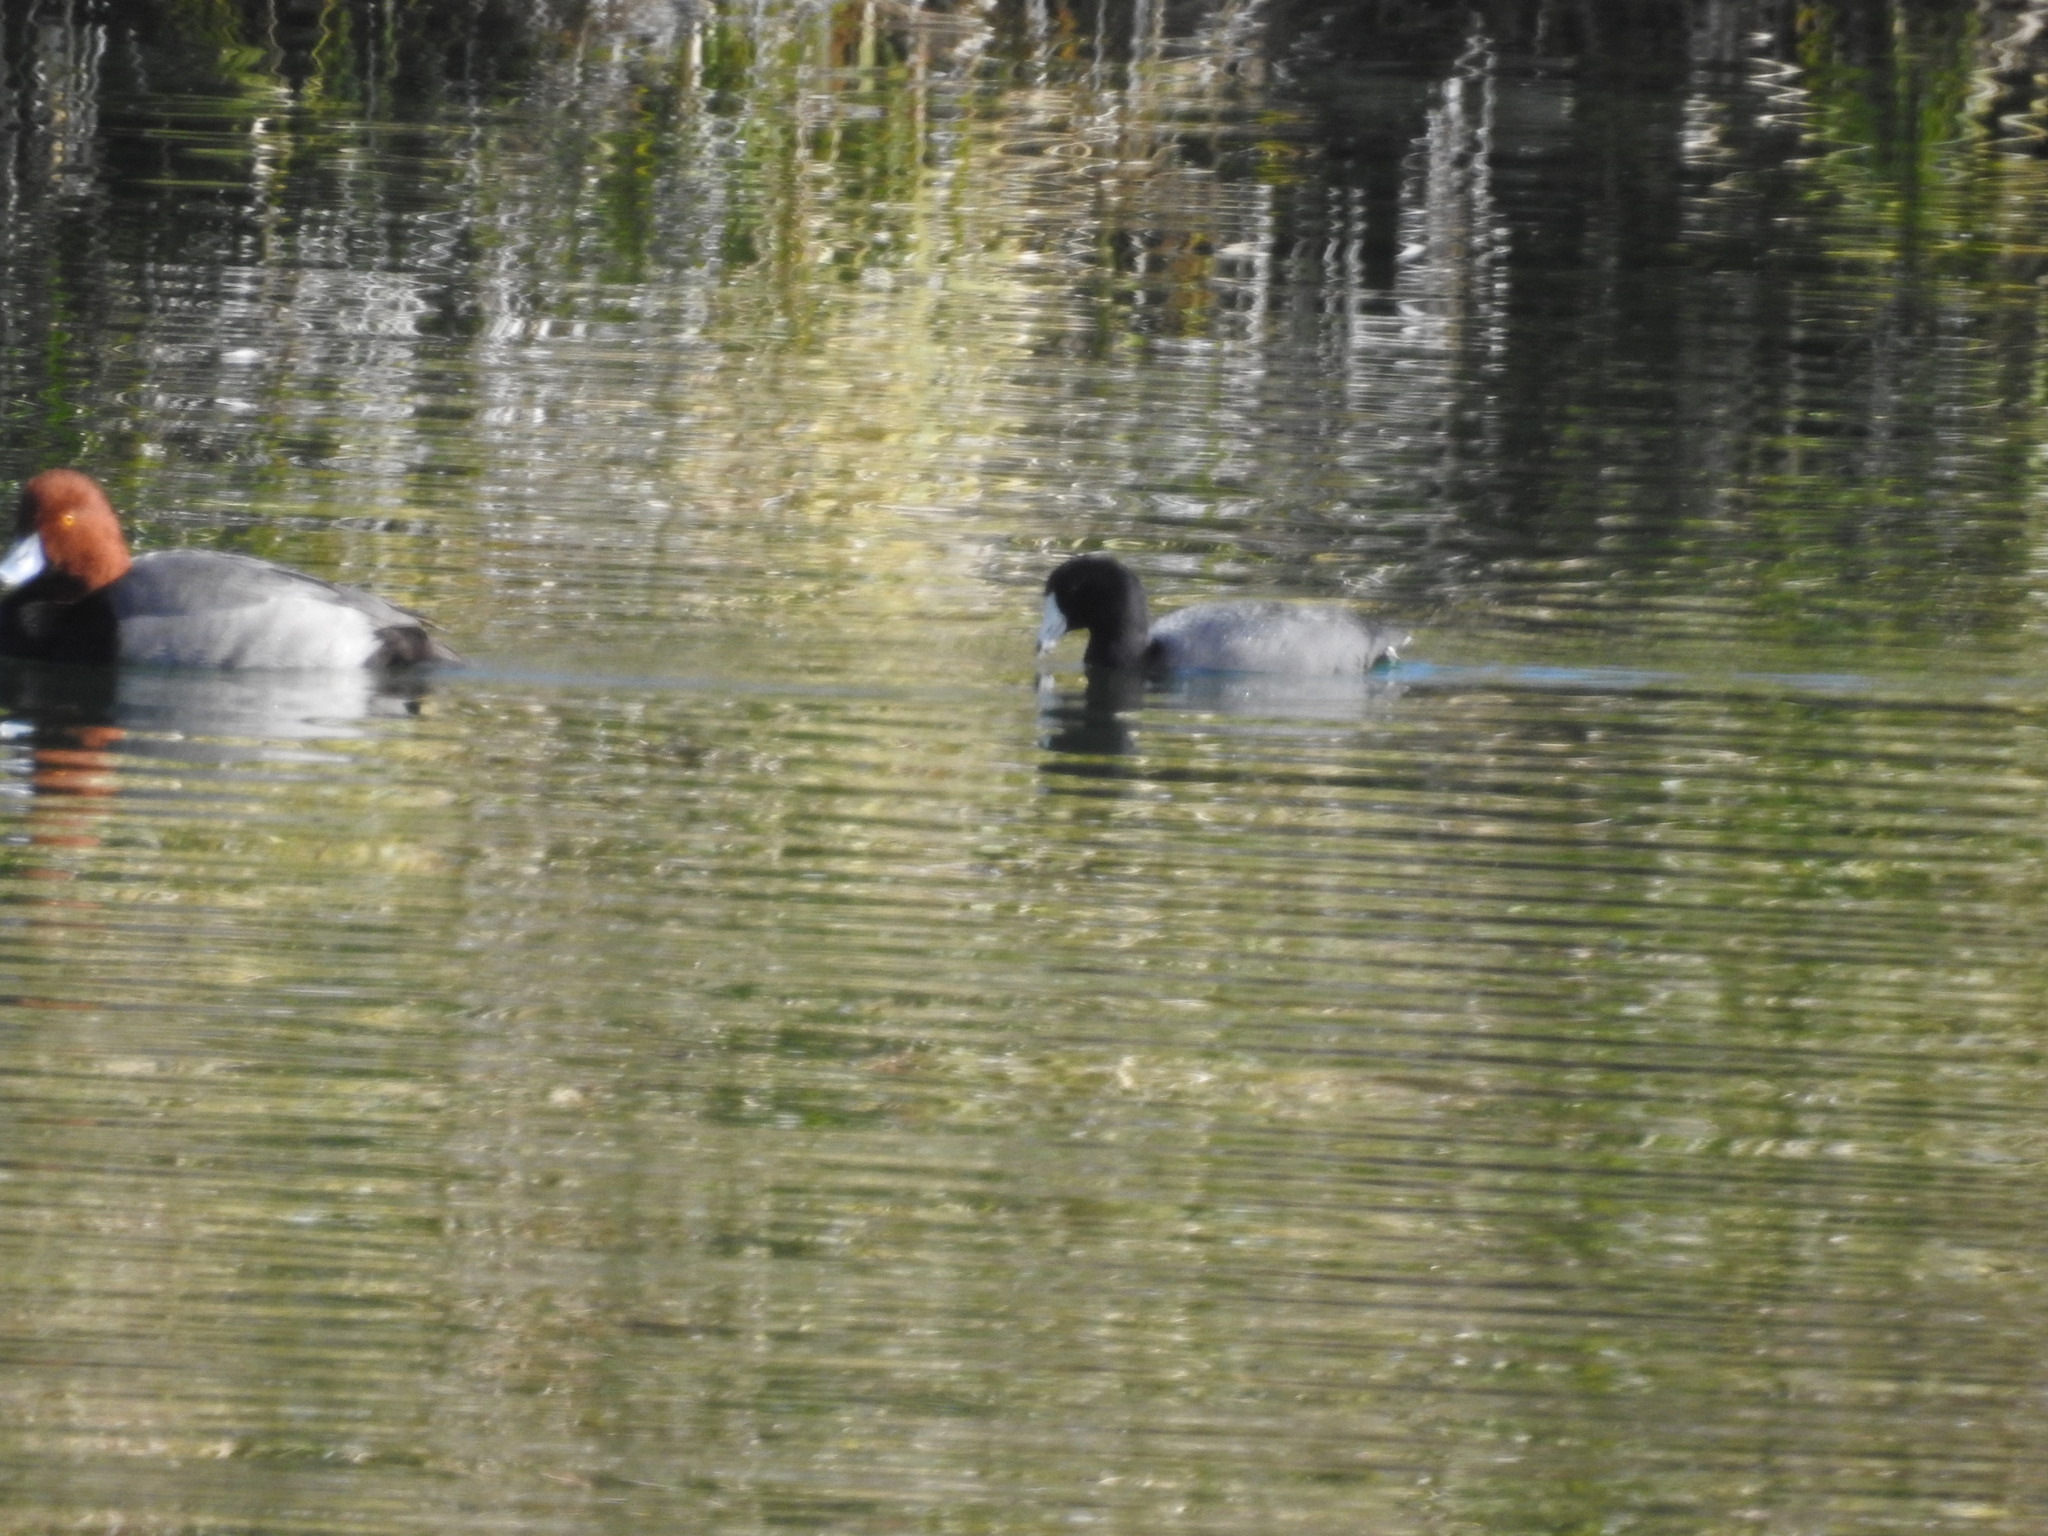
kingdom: Animalia
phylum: Chordata
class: Aves
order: Gruiformes
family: Rallidae
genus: Fulica
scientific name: Fulica americana
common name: American coot
